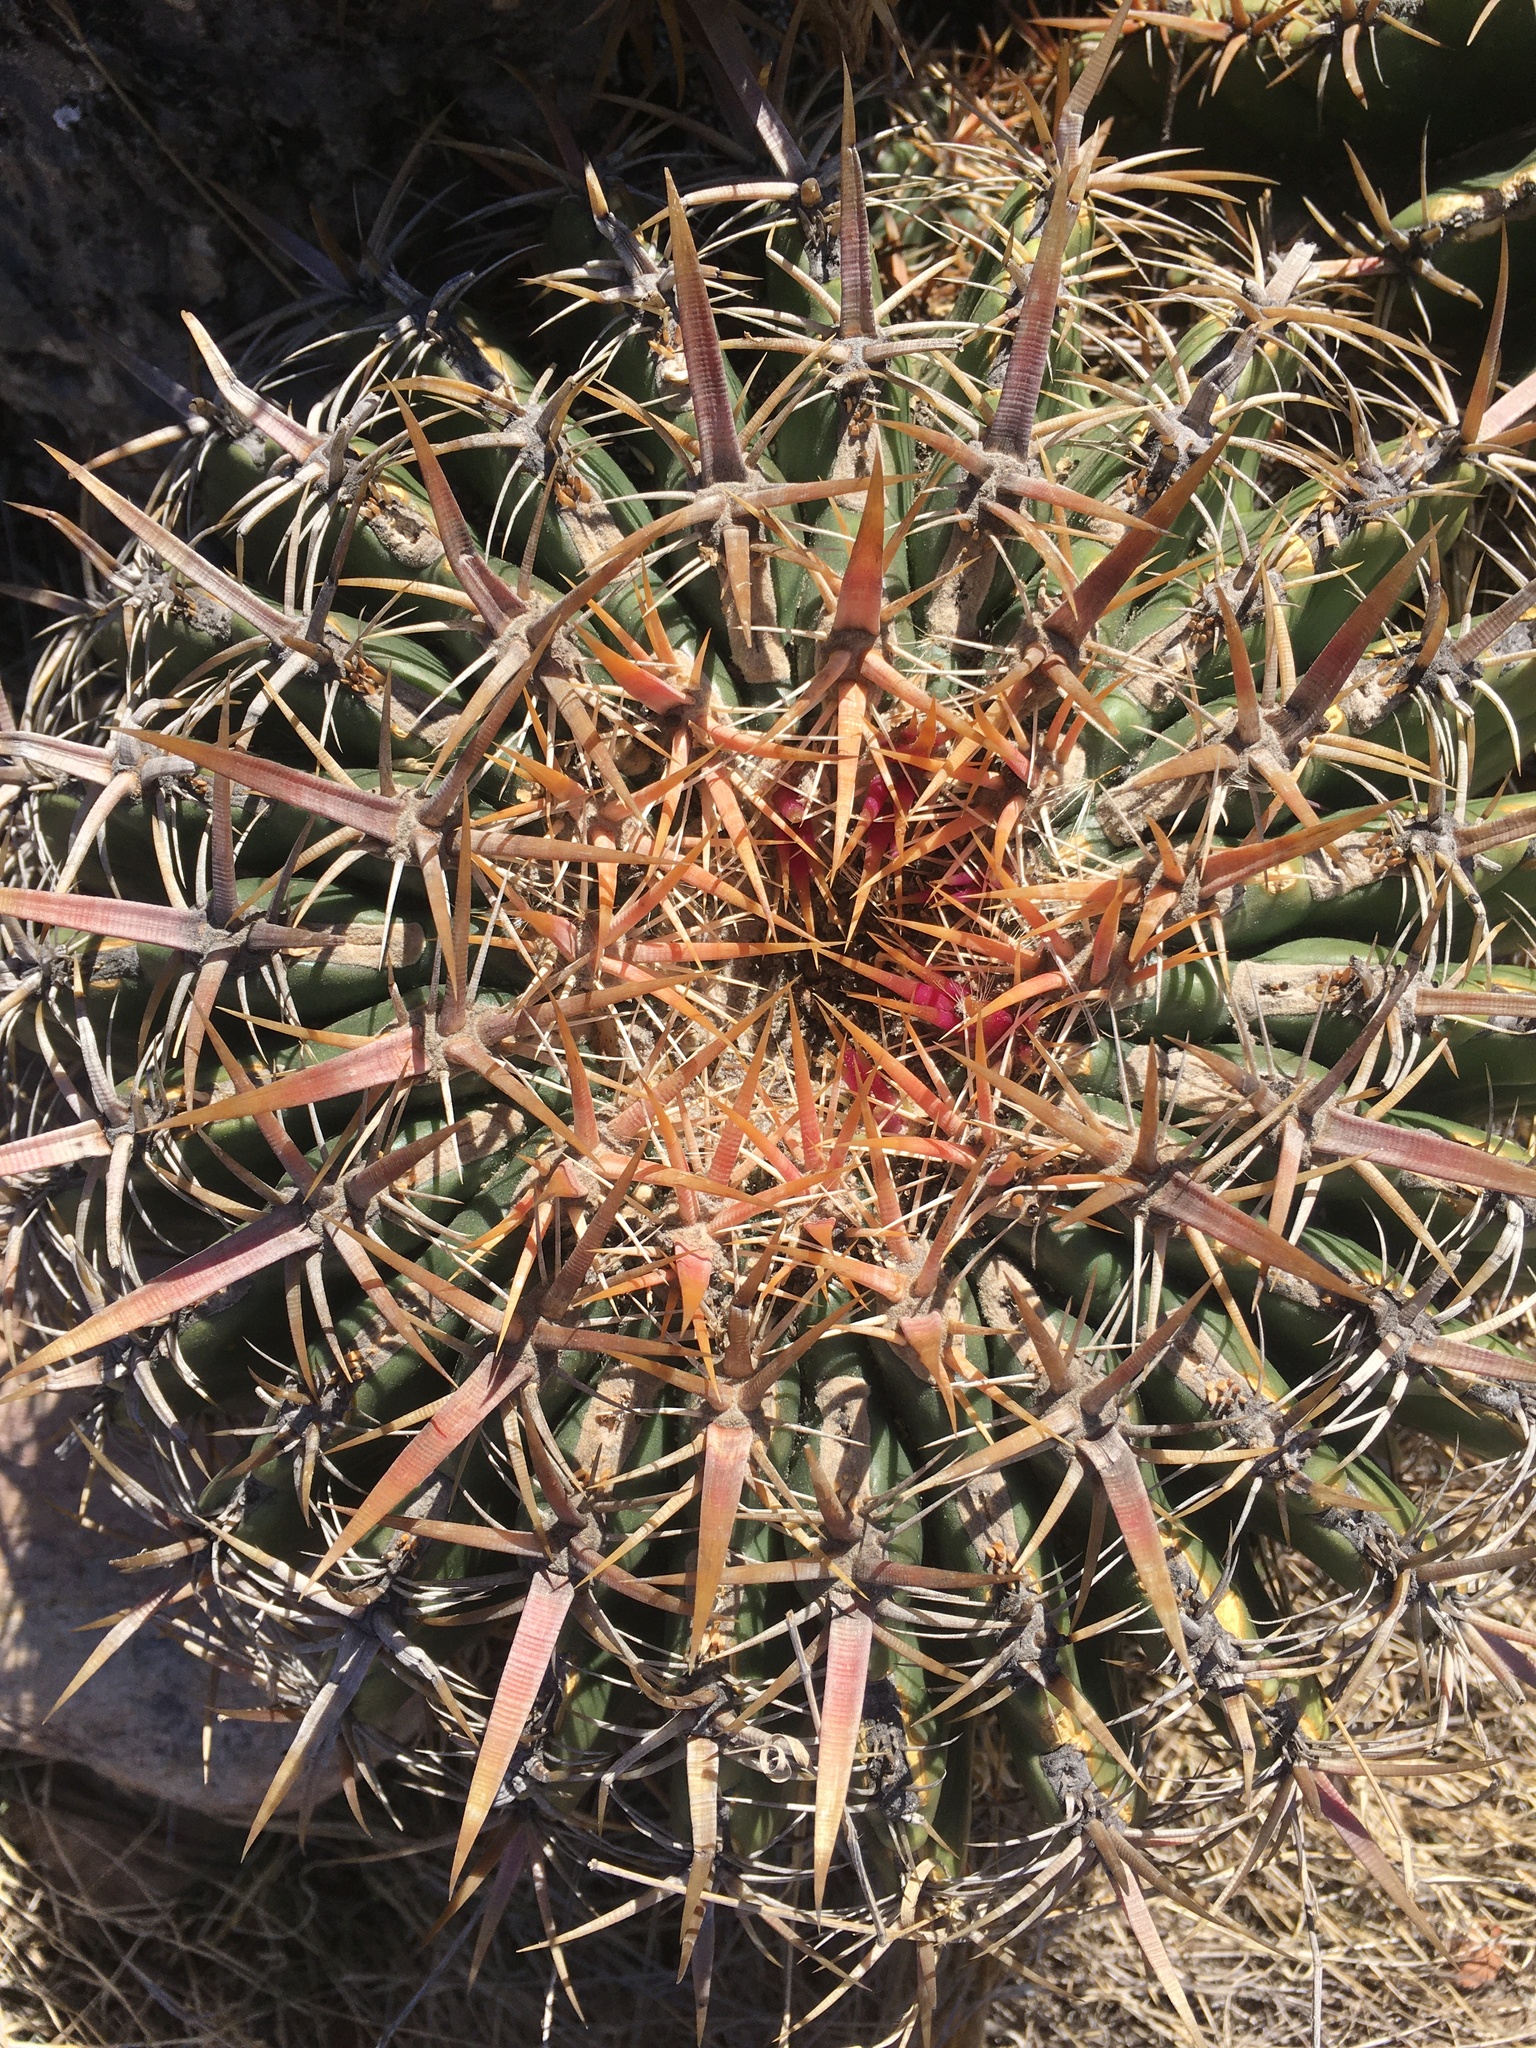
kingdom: Plantae
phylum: Tracheophyta
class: Magnoliopsida
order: Caryophyllales
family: Cactaceae
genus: Ferocactus
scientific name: Ferocactus viridescens
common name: San diego barrel cactus
